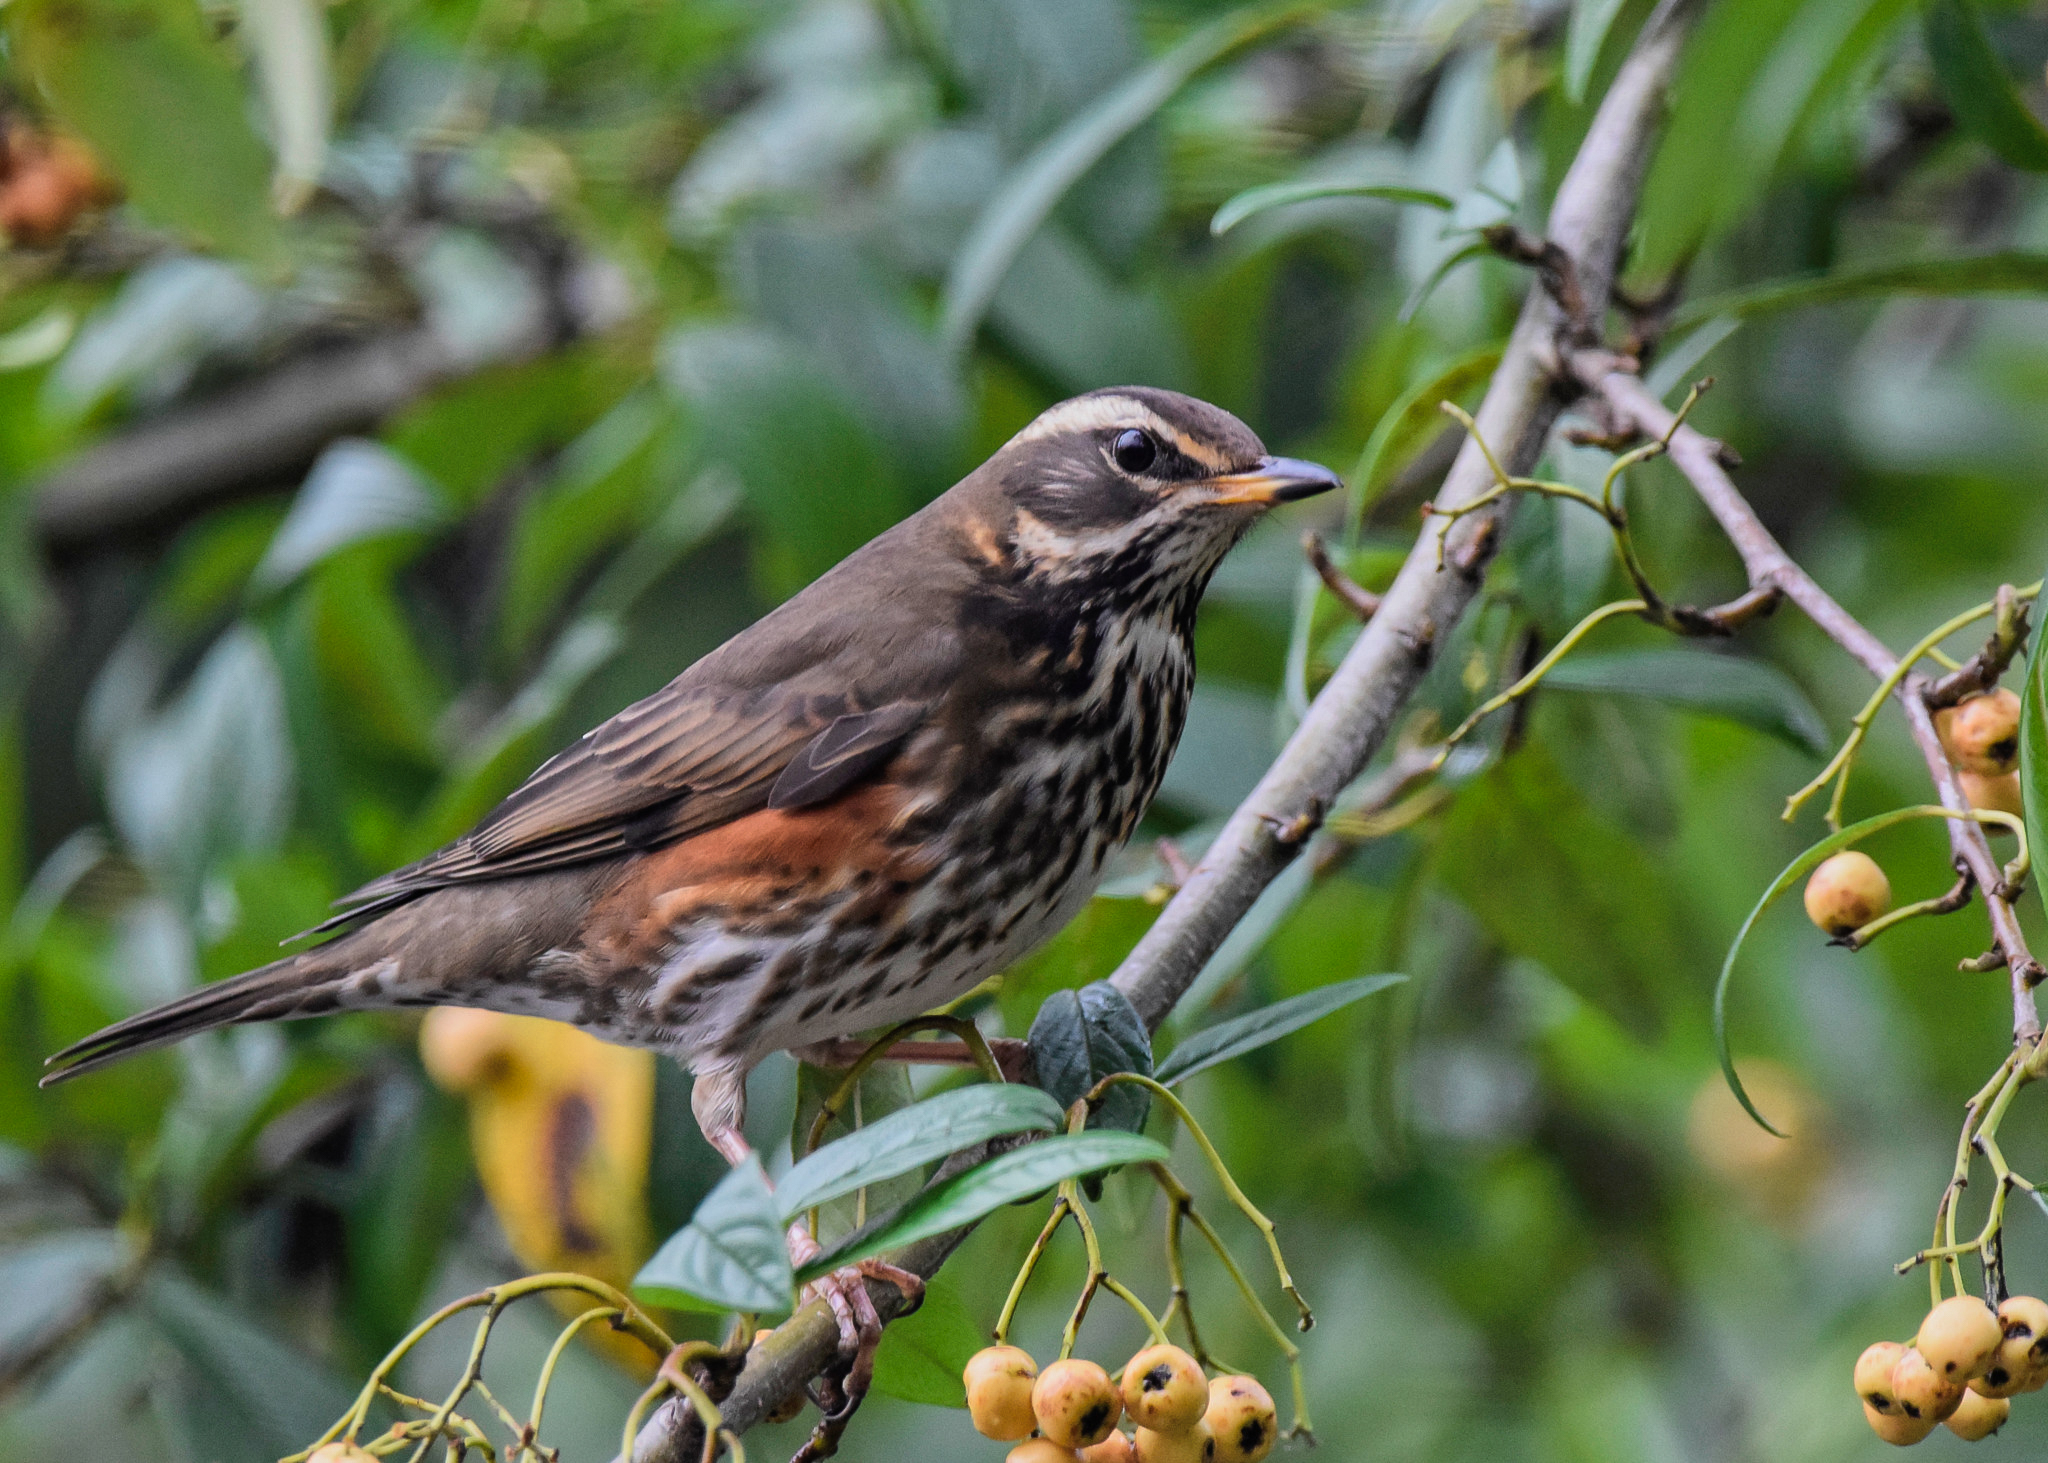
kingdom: Animalia
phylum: Chordata
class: Aves
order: Passeriformes
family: Turdidae
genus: Turdus
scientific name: Turdus iliacus
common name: Redwing
